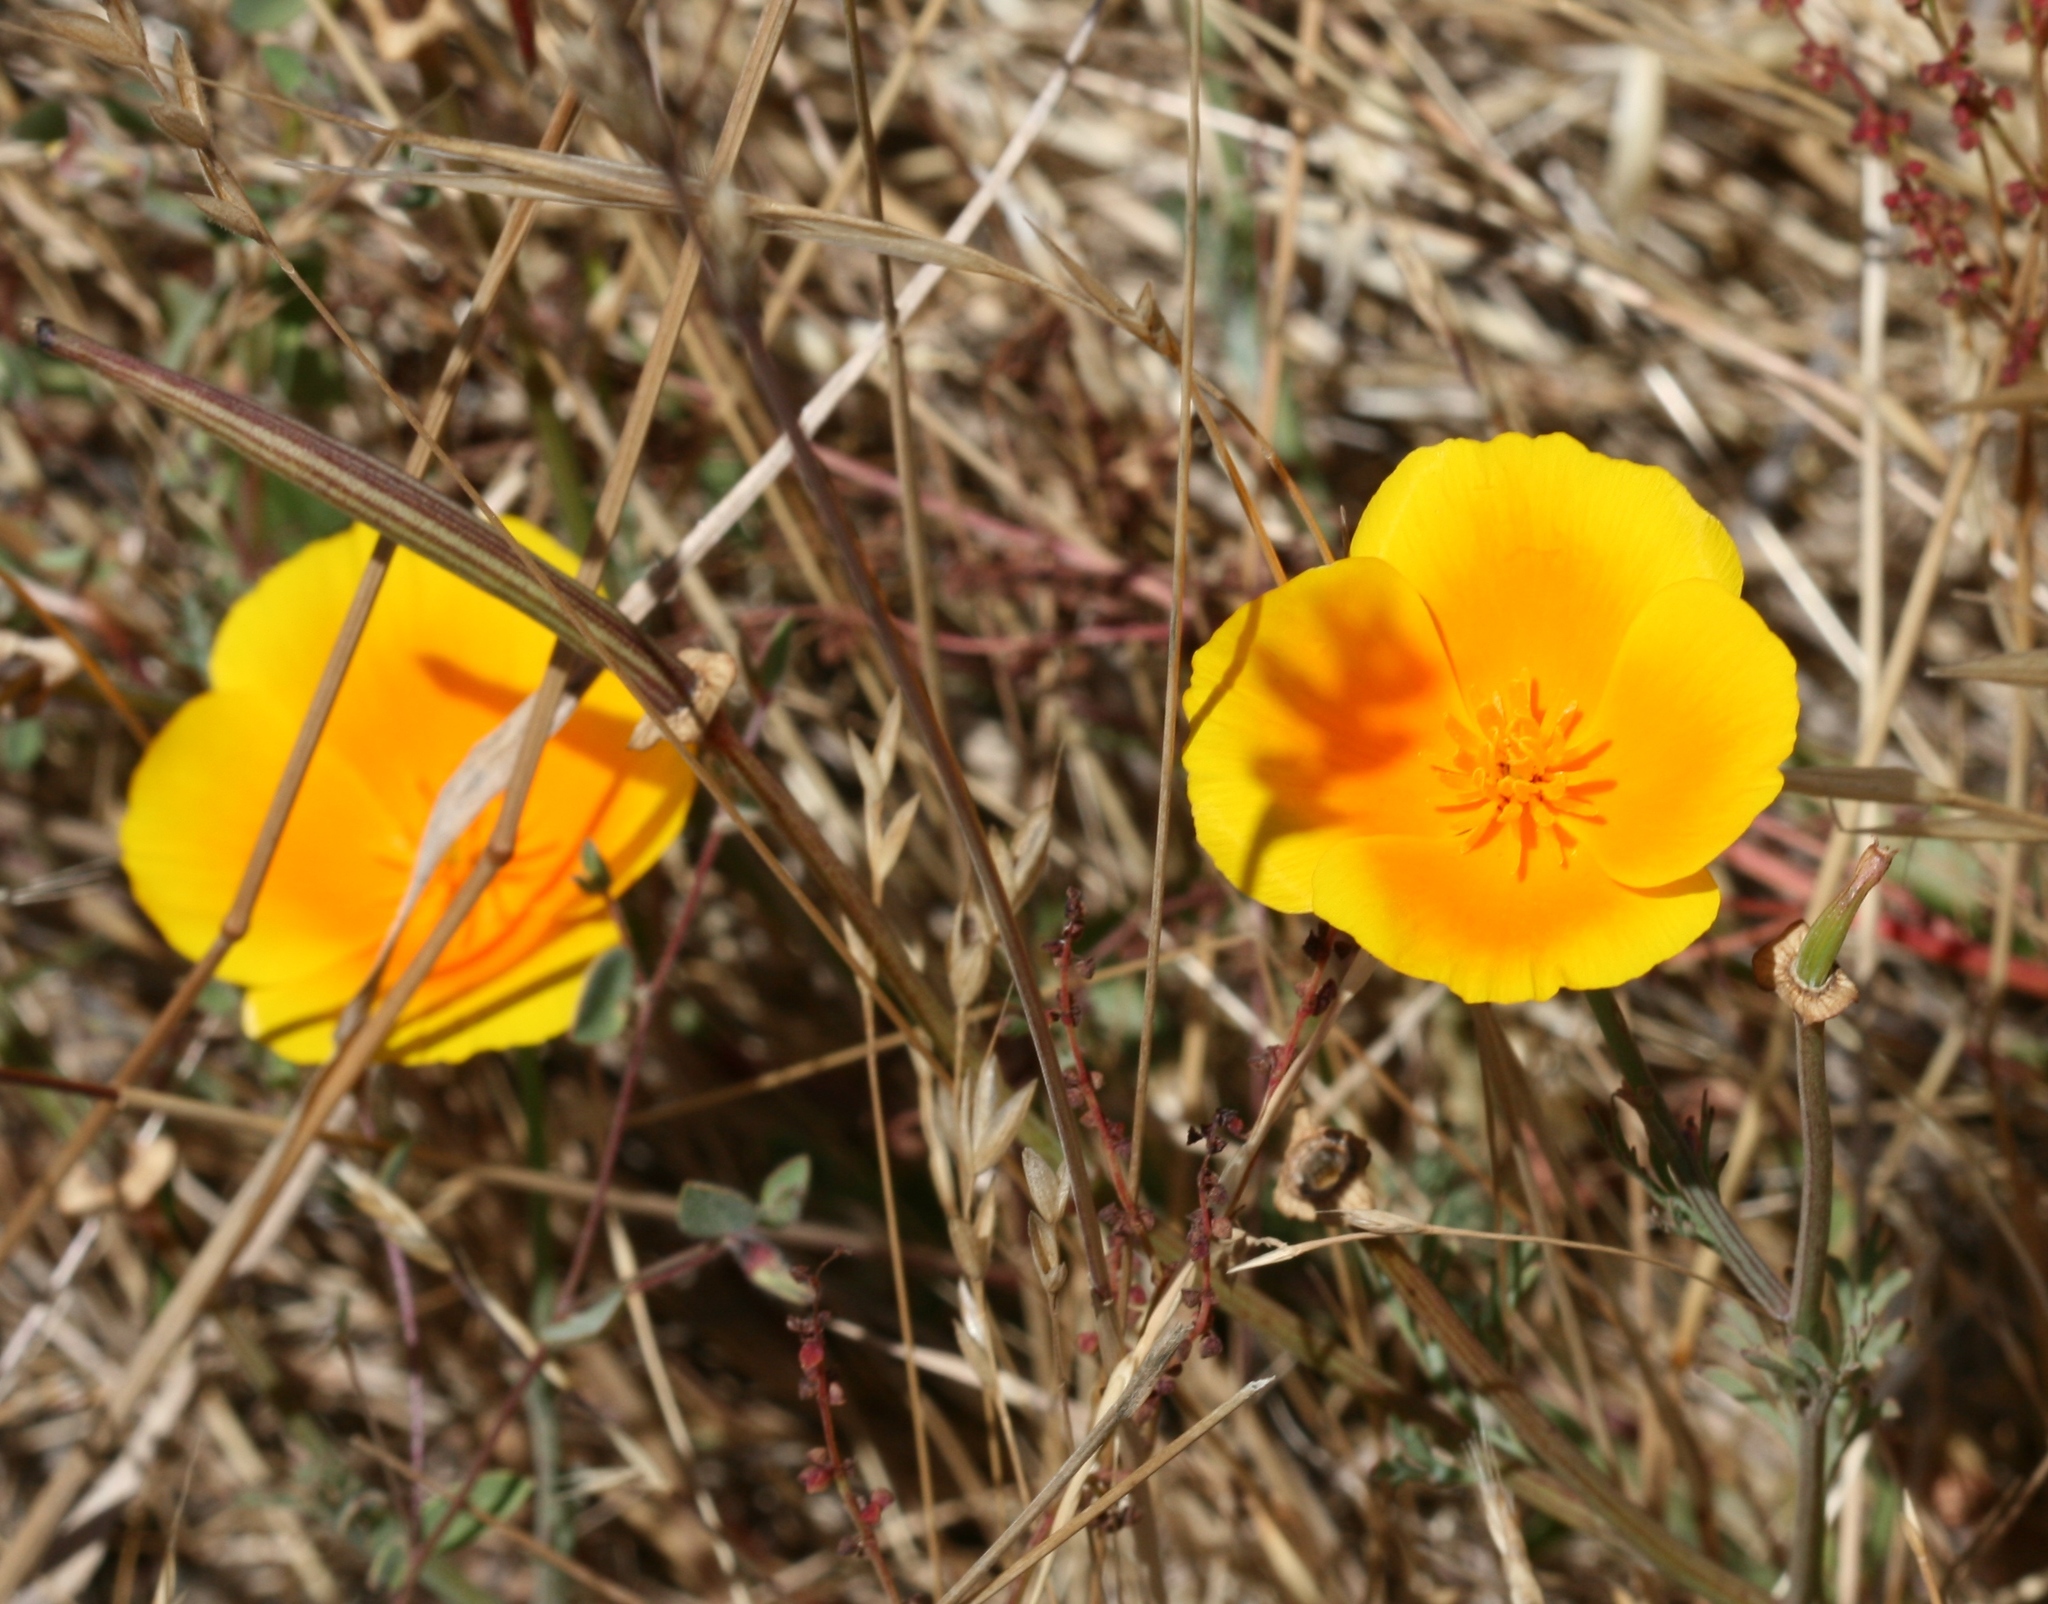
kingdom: Plantae
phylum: Tracheophyta
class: Magnoliopsida
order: Ranunculales
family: Papaveraceae
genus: Eschscholzia
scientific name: Eschscholzia californica
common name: California poppy
